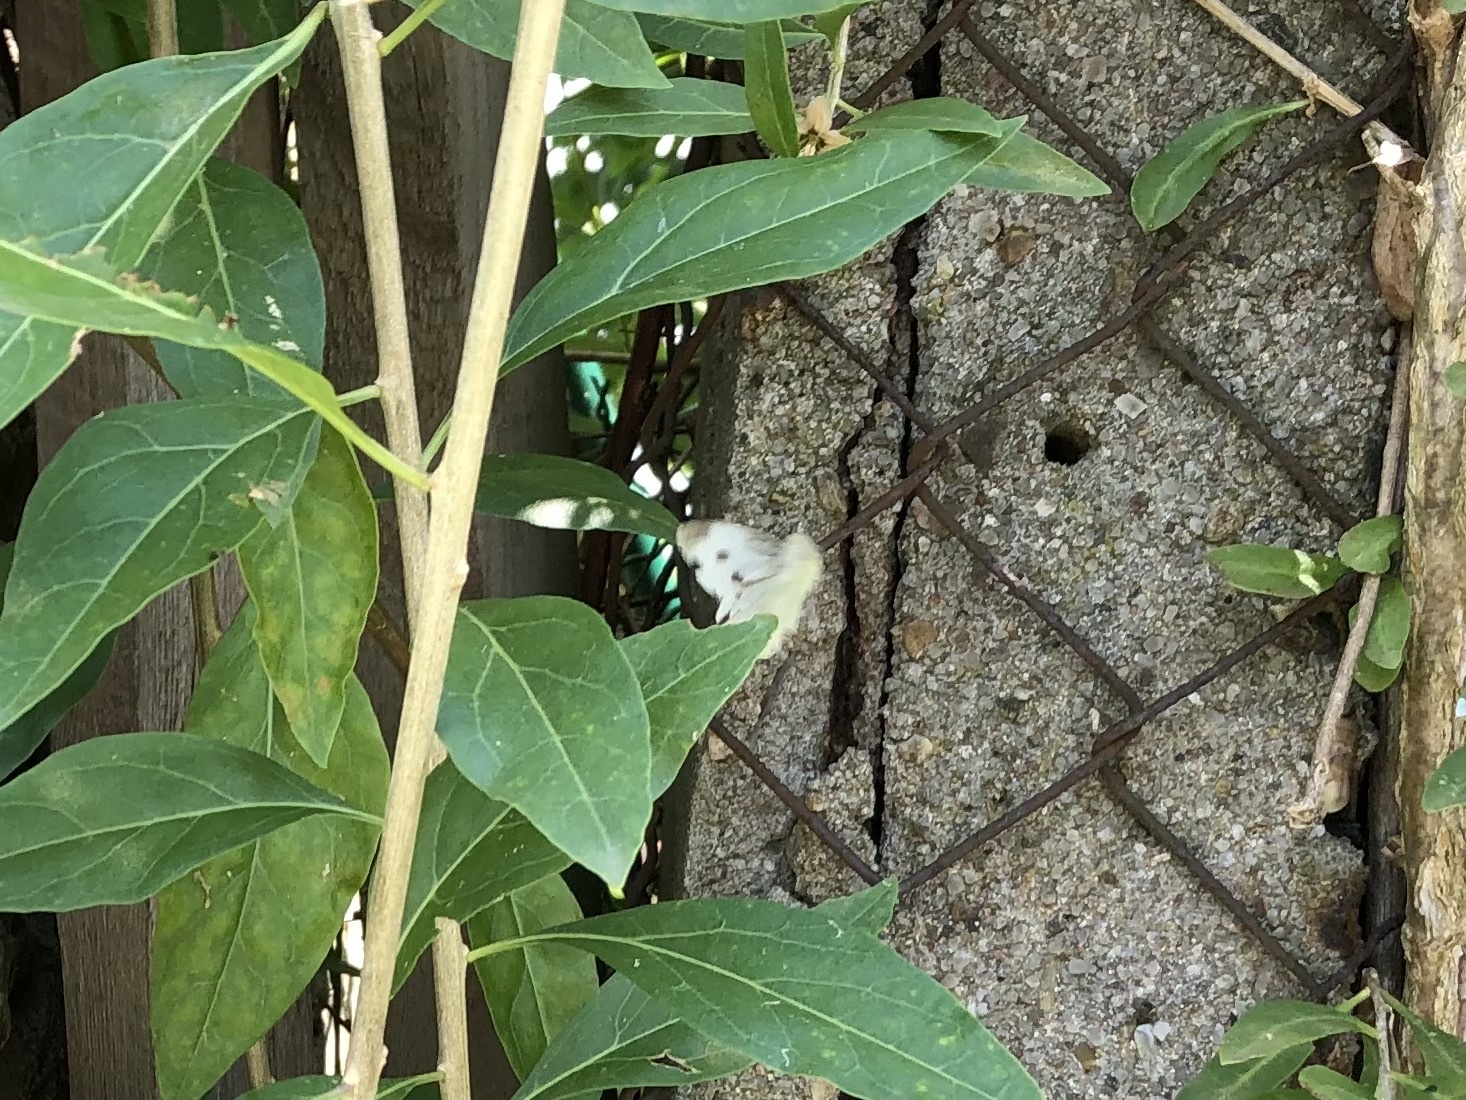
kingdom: Animalia
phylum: Arthropoda
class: Insecta
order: Lepidoptera
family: Pieridae
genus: Pieris
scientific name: Pieris rapae
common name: Small white
